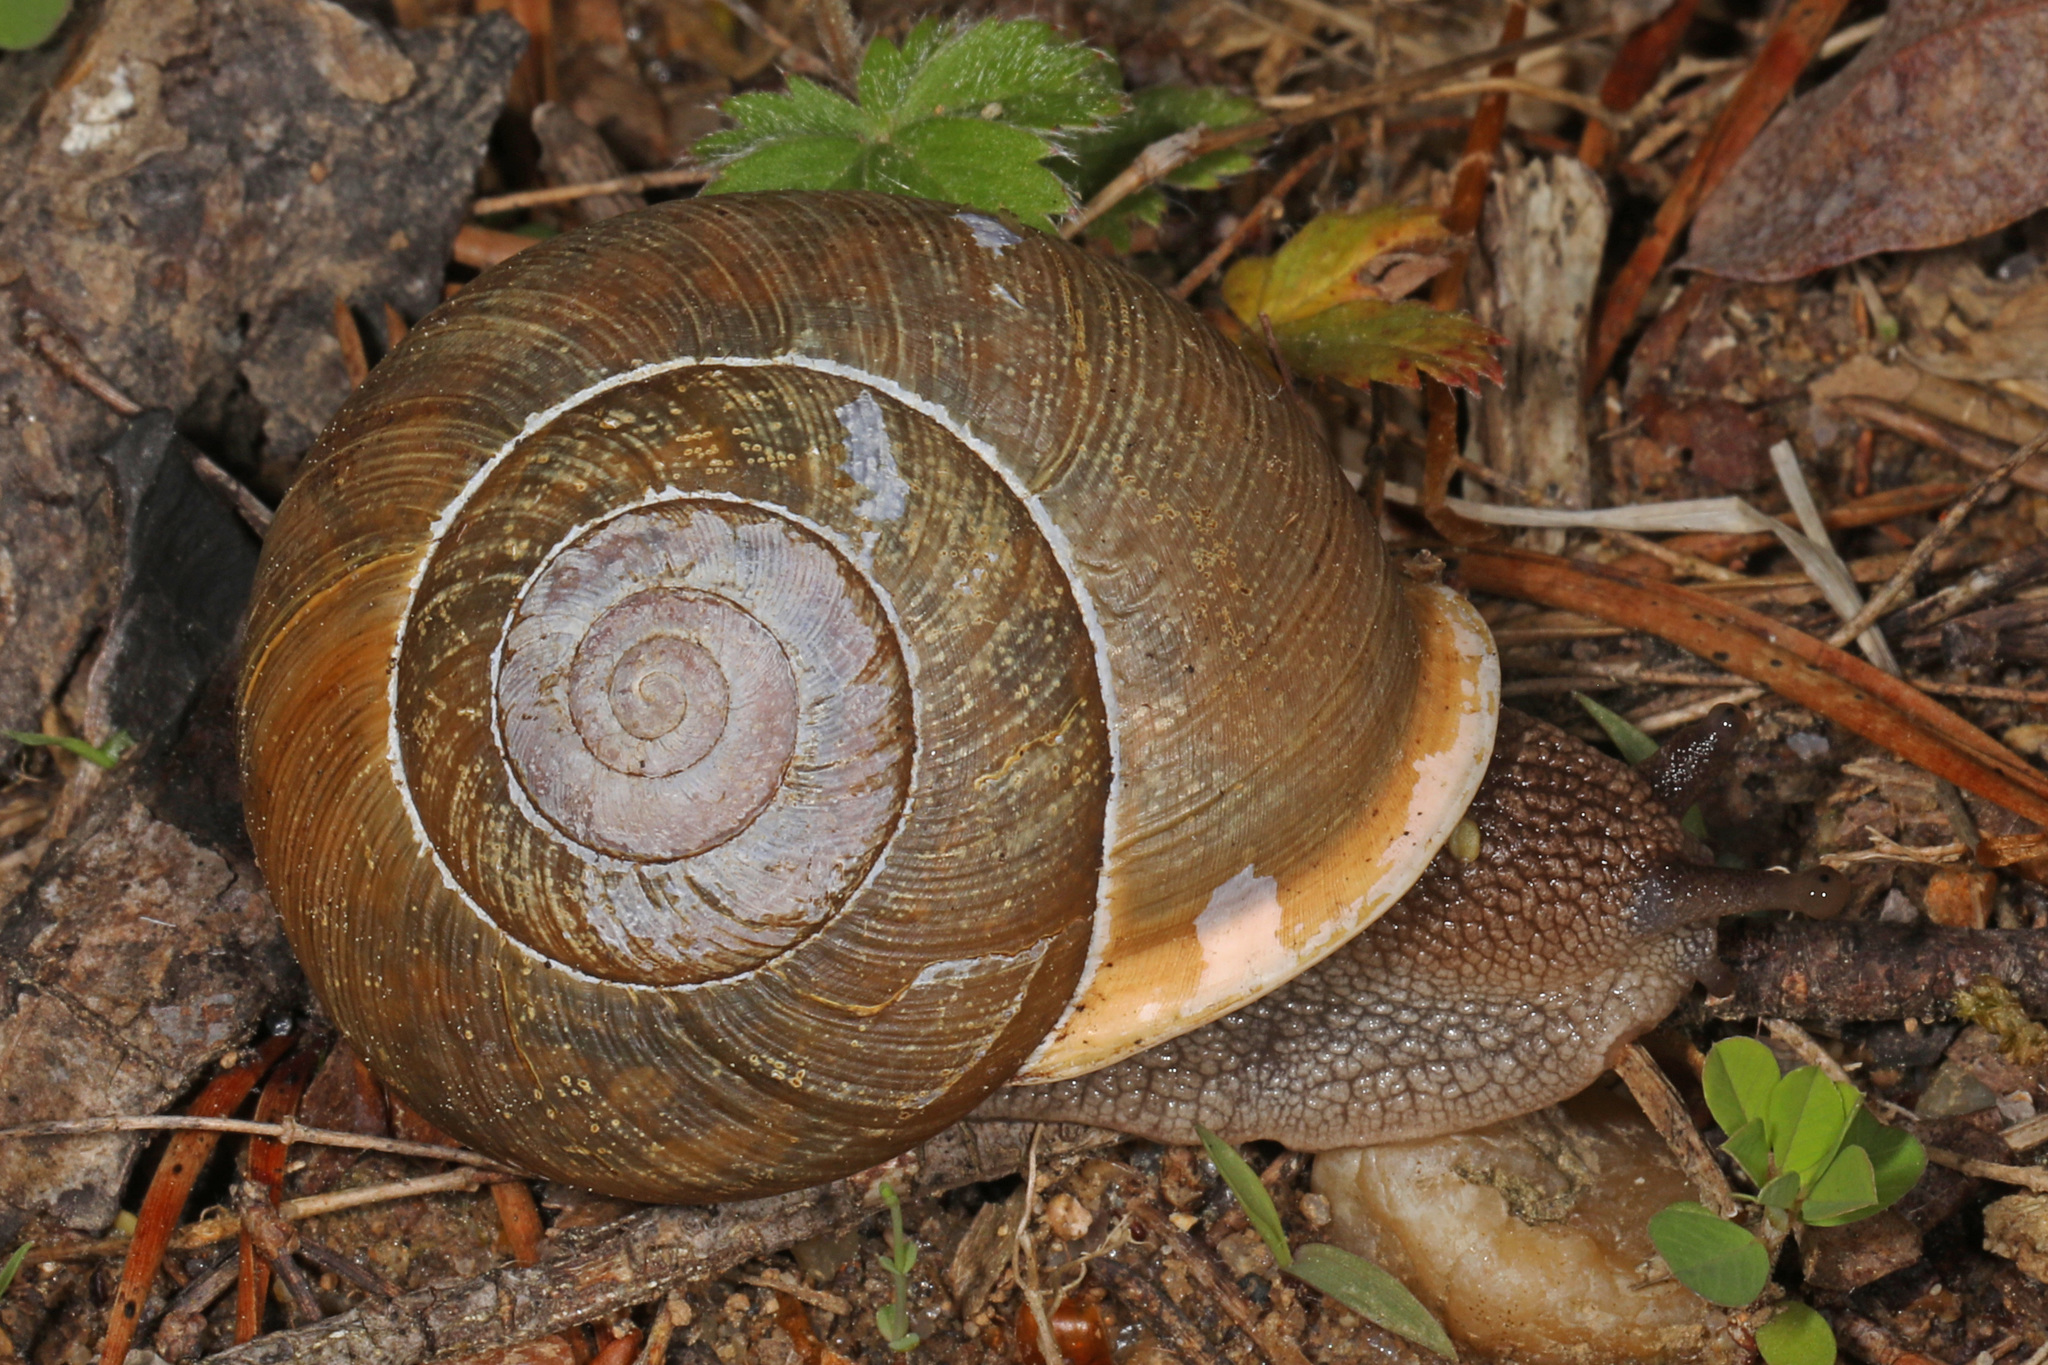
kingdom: Animalia
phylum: Mollusca
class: Gastropoda
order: Stylommatophora
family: Polygyridae
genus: Neohelix
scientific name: Neohelix albolabris
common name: Eastern whitelip
